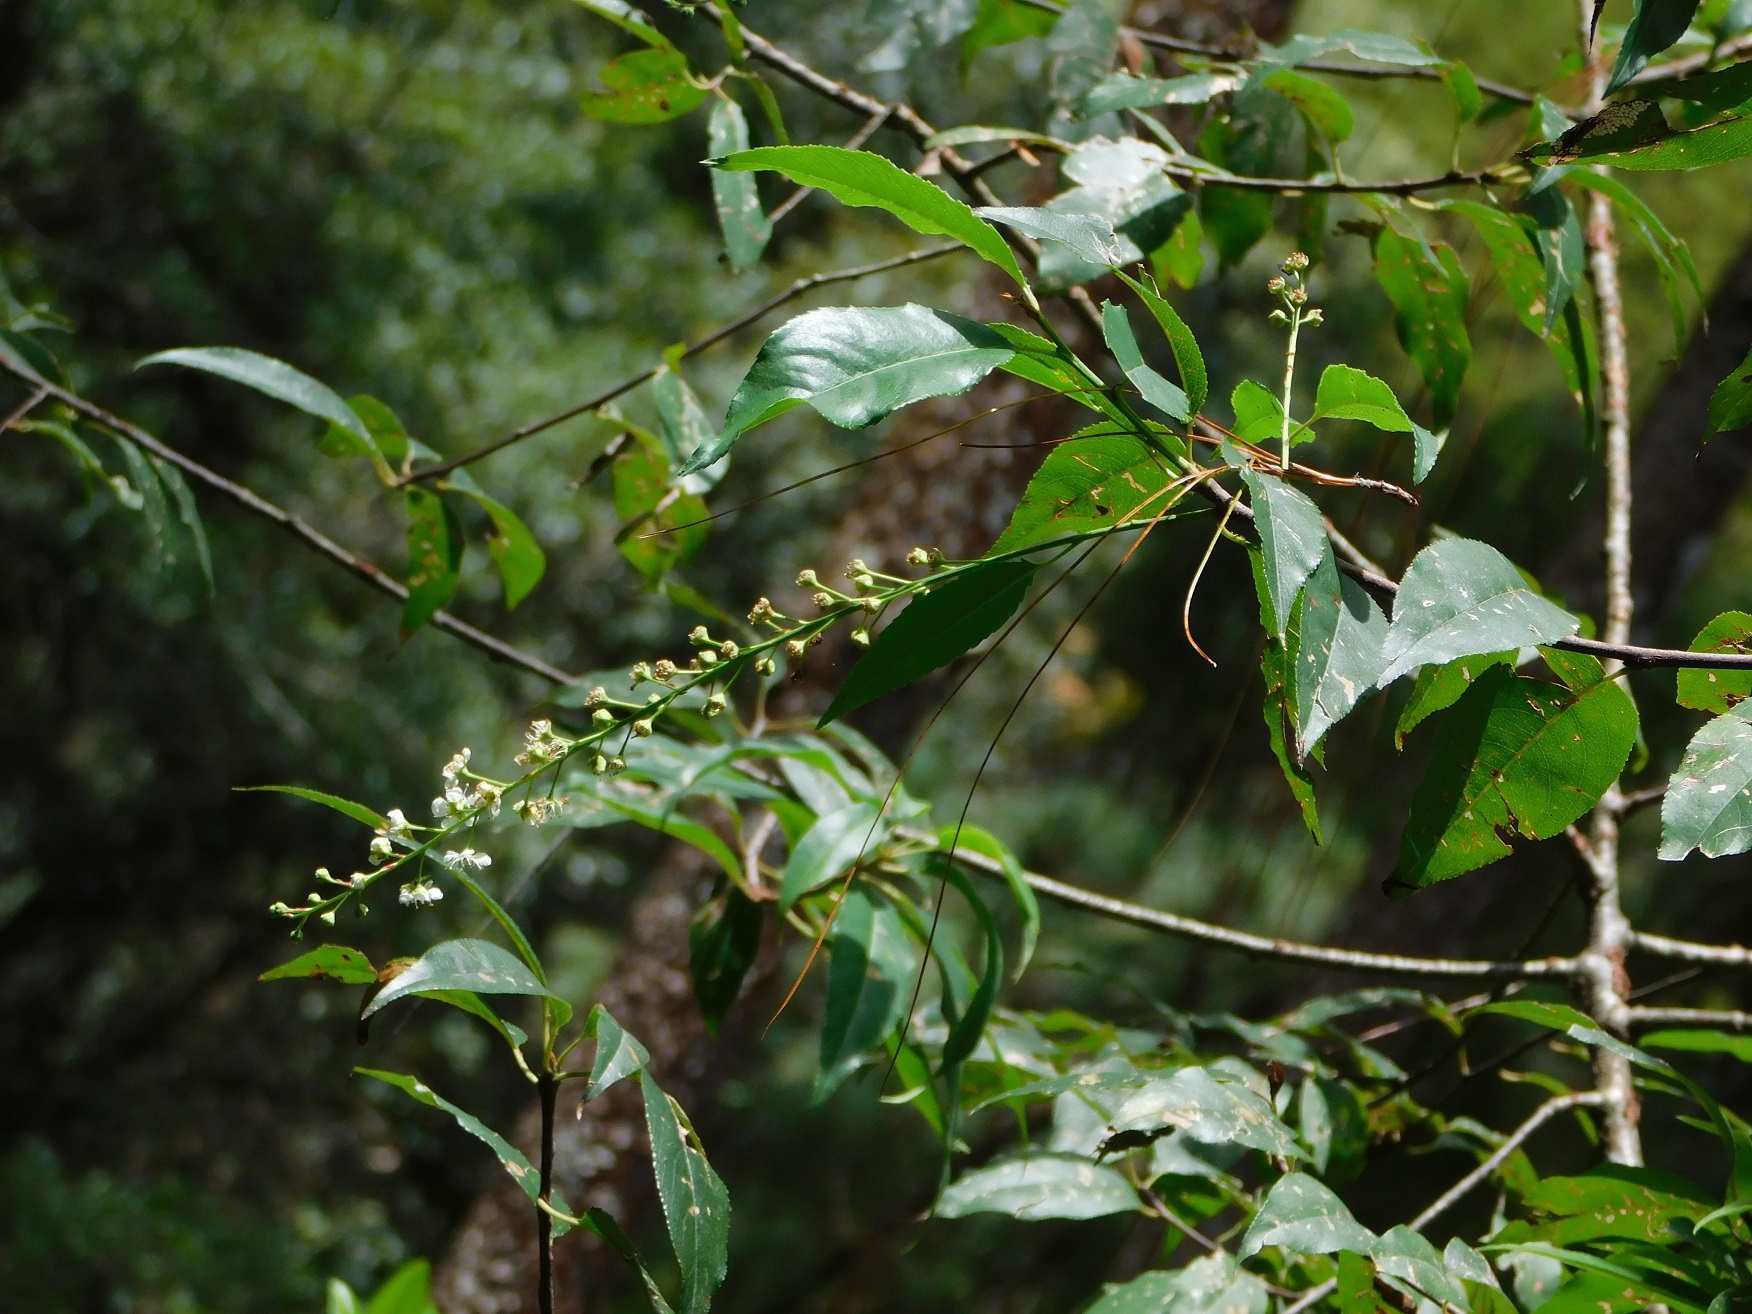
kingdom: Plantae
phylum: Tracheophyta
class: Magnoliopsida
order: Rosales
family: Rosaceae
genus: Prunus
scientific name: Prunus serotina
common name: Black cherry
